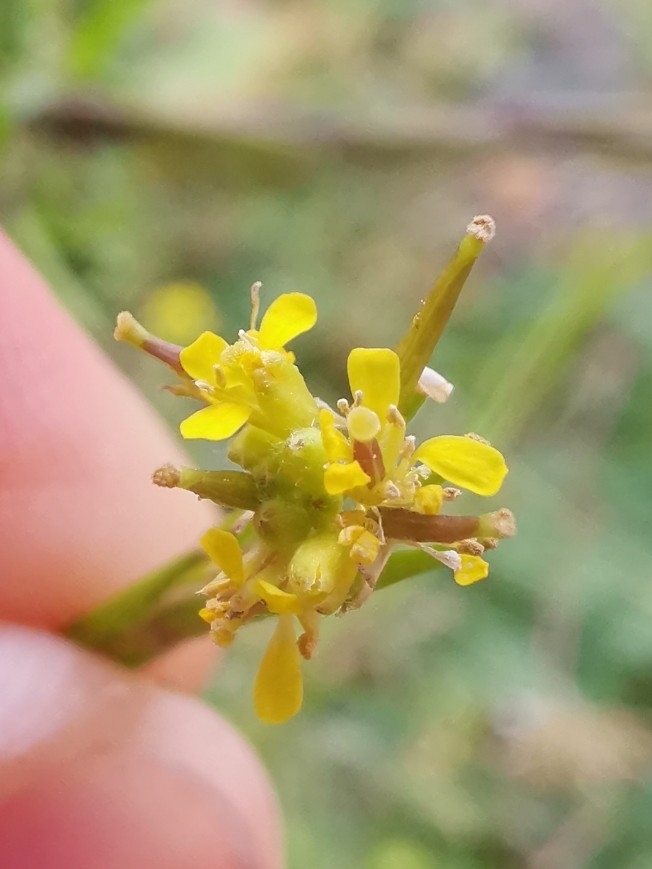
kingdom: Plantae
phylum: Tracheophyta
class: Magnoliopsida
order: Brassicales
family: Brassicaceae
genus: Sisymbrium
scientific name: Sisymbrium officinale
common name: Hedge mustard
